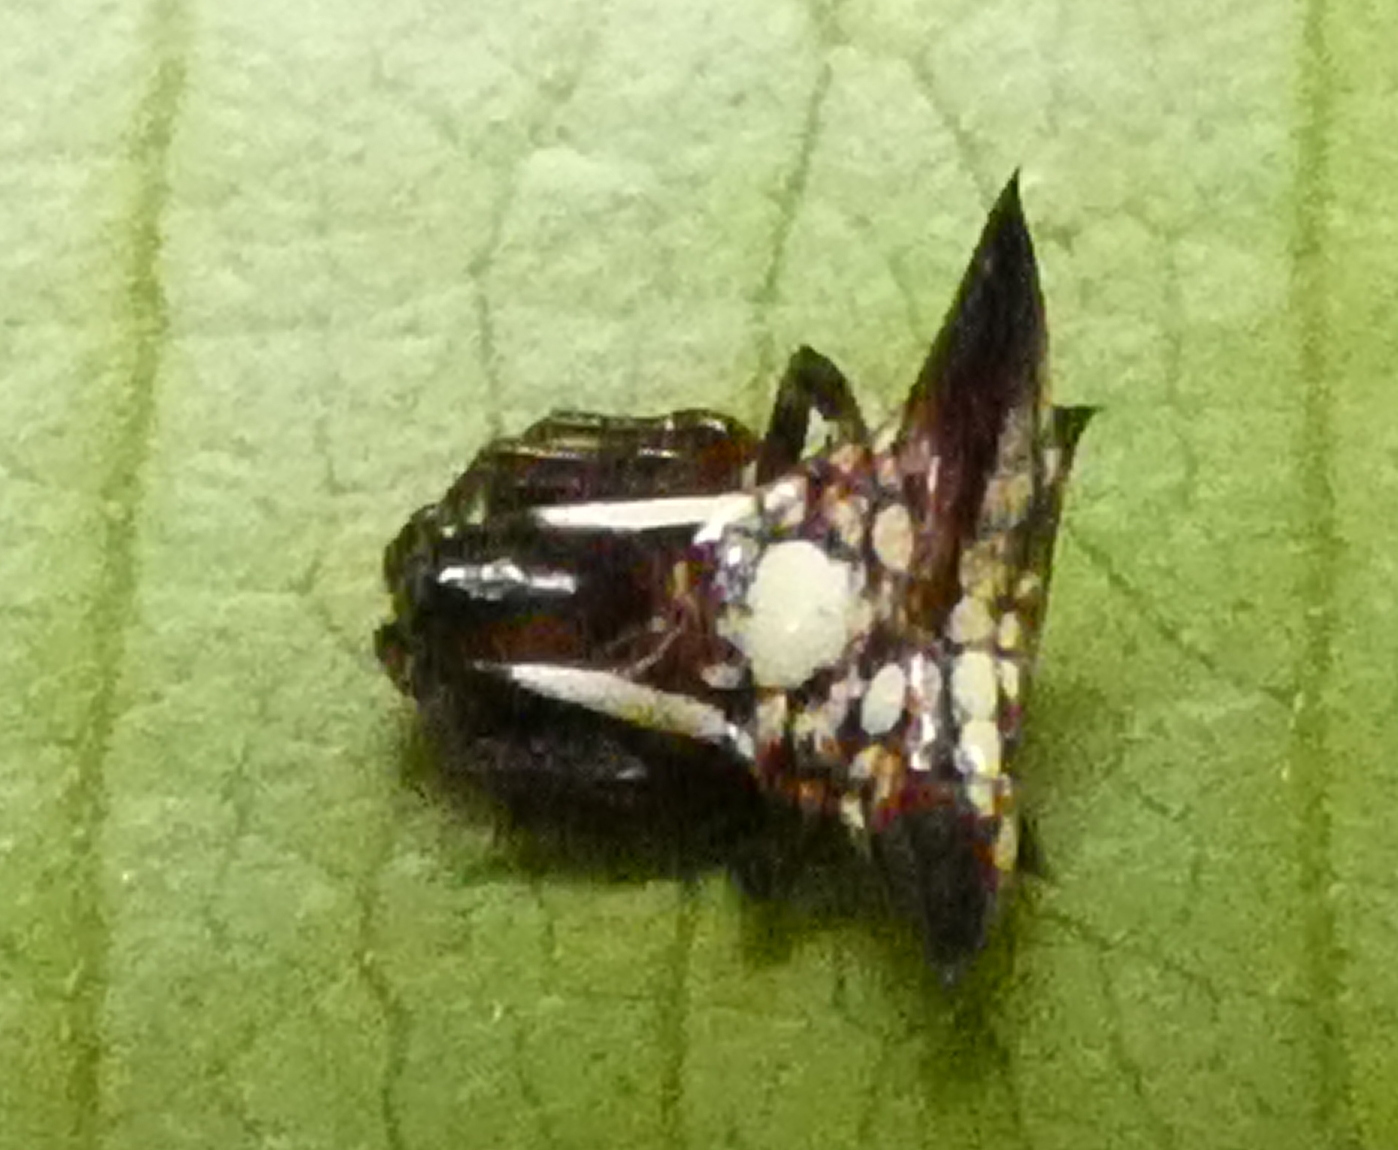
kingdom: Animalia
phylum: Arthropoda
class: Arachnida
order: Araneae
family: Araneidae
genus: Micrathena
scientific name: Micrathena evansi
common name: Orb weavers
